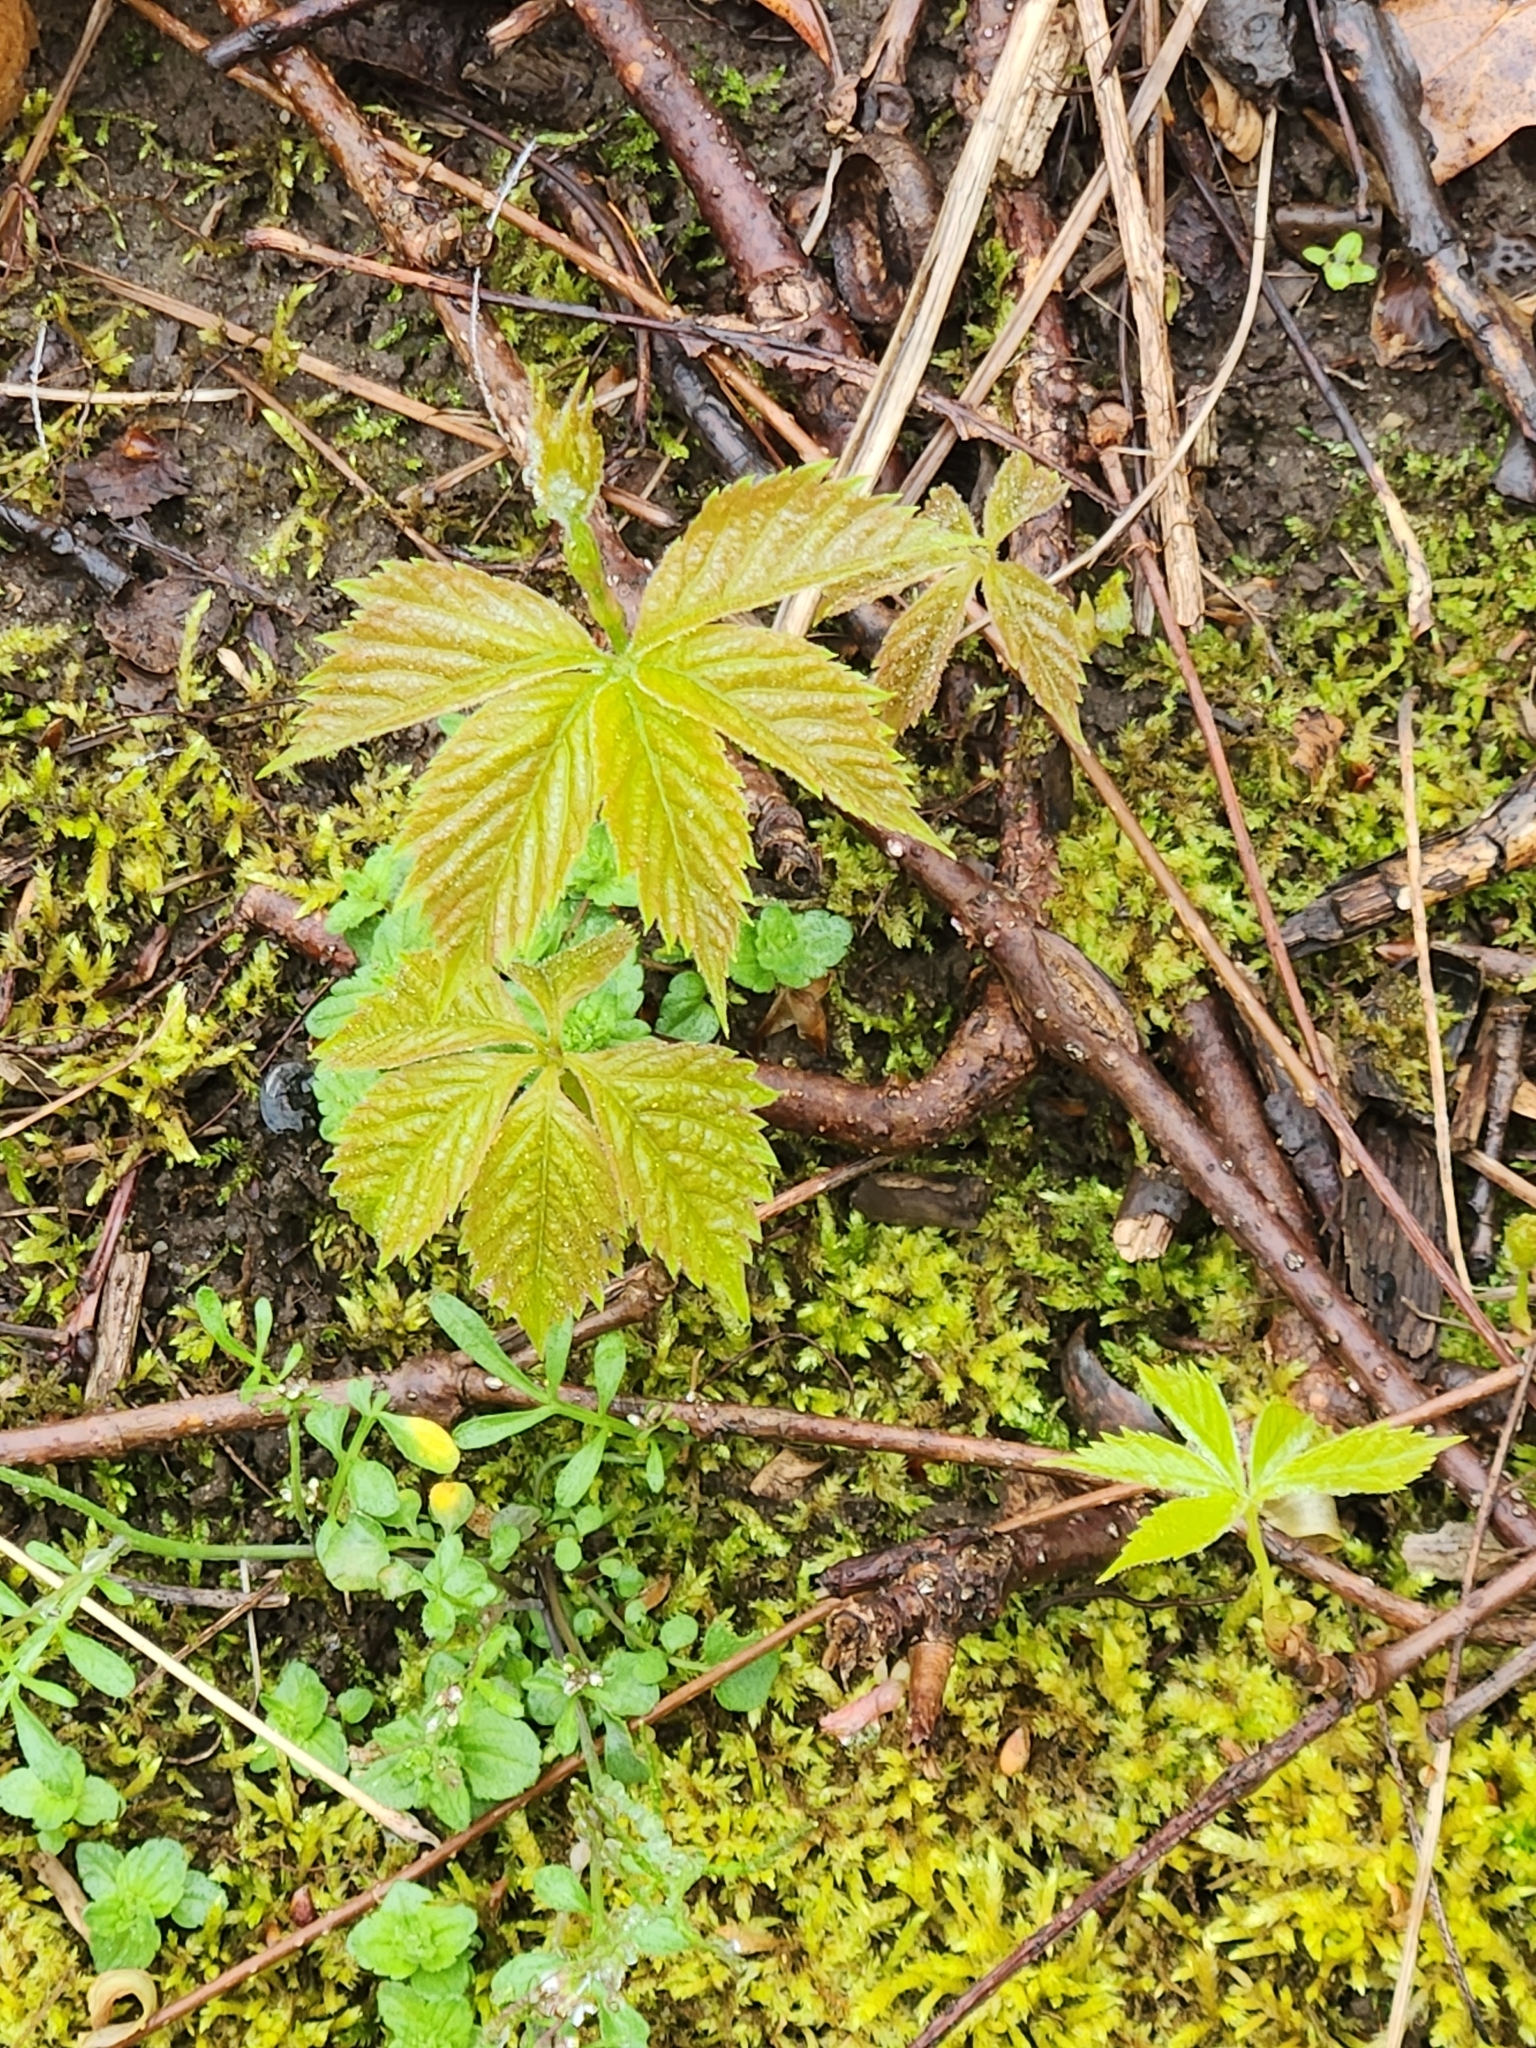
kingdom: Plantae
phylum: Tracheophyta
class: Magnoliopsida
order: Vitales
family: Vitaceae
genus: Parthenocissus
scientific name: Parthenocissus quinquefolia
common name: Virginia-creeper
